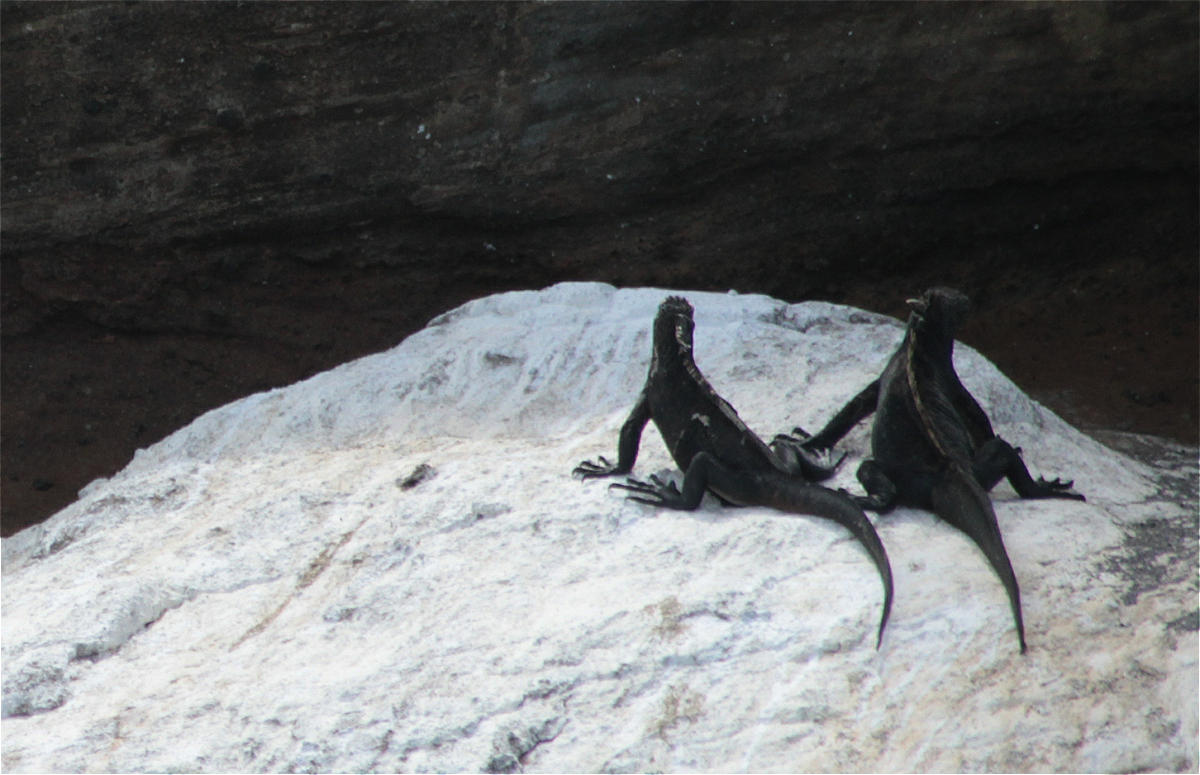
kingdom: Animalia
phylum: Chordata
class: Squamata
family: Iguanidae
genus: Amblyrhynchus
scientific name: Amblyrhynchus cristatus
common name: Marine iguana
